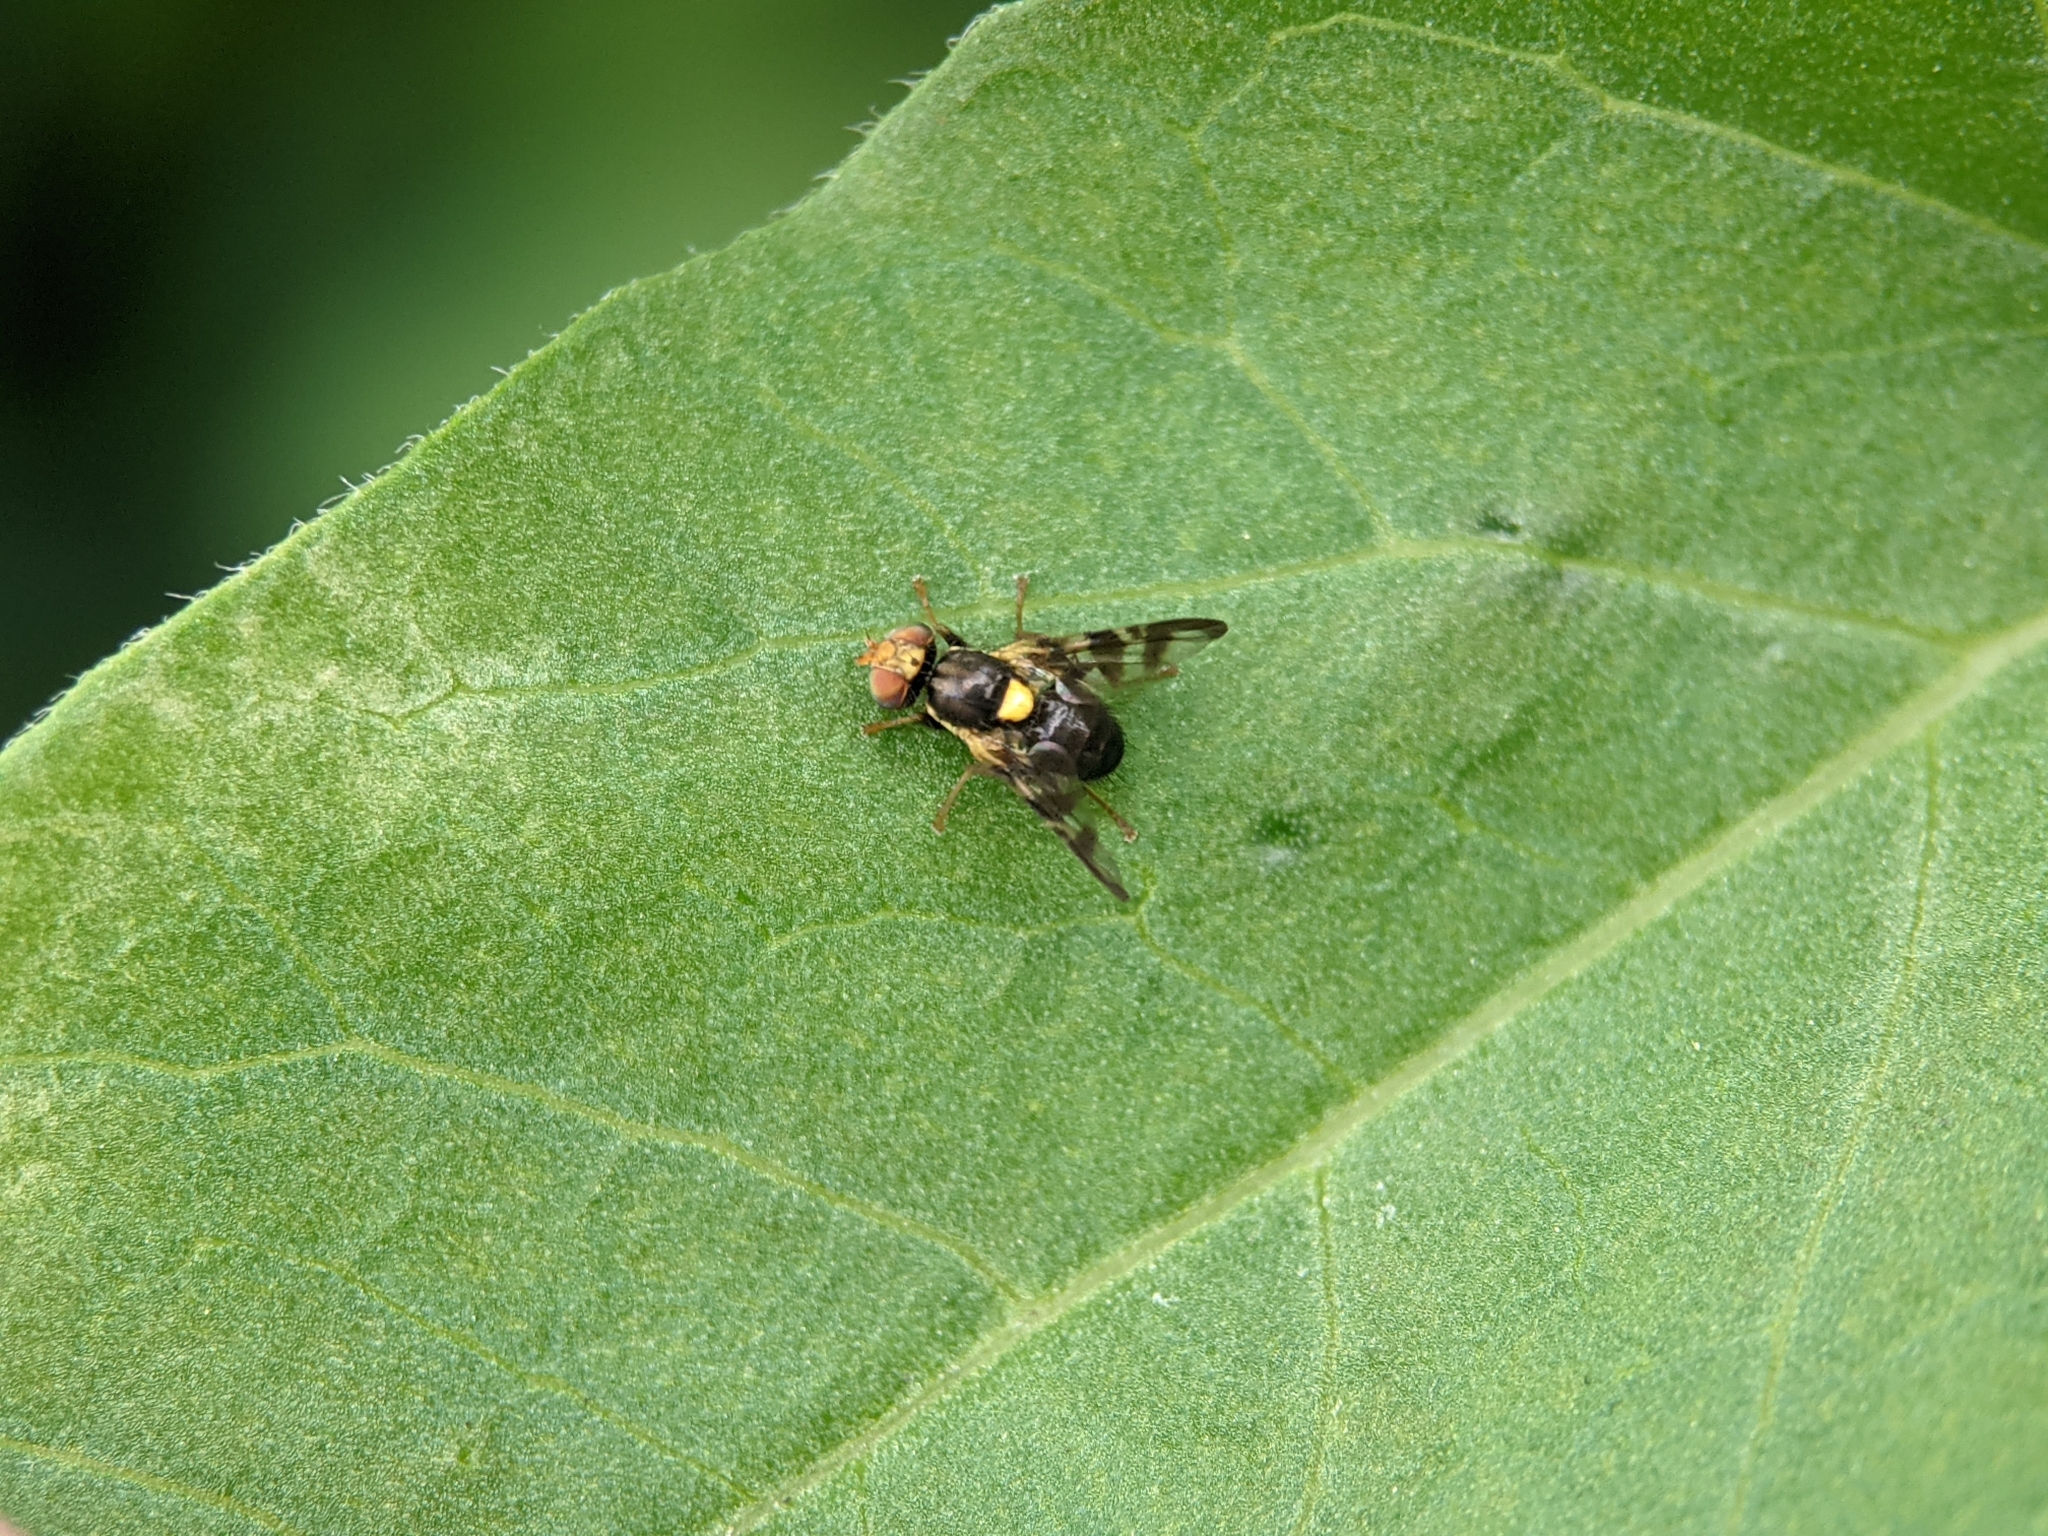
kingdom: Animalia
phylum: Arthropoda
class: Insecta
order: Diptera
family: Tephritidae
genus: Rhagoletis
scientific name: Rhagoletis cerasi
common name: European cherry fruit fly
